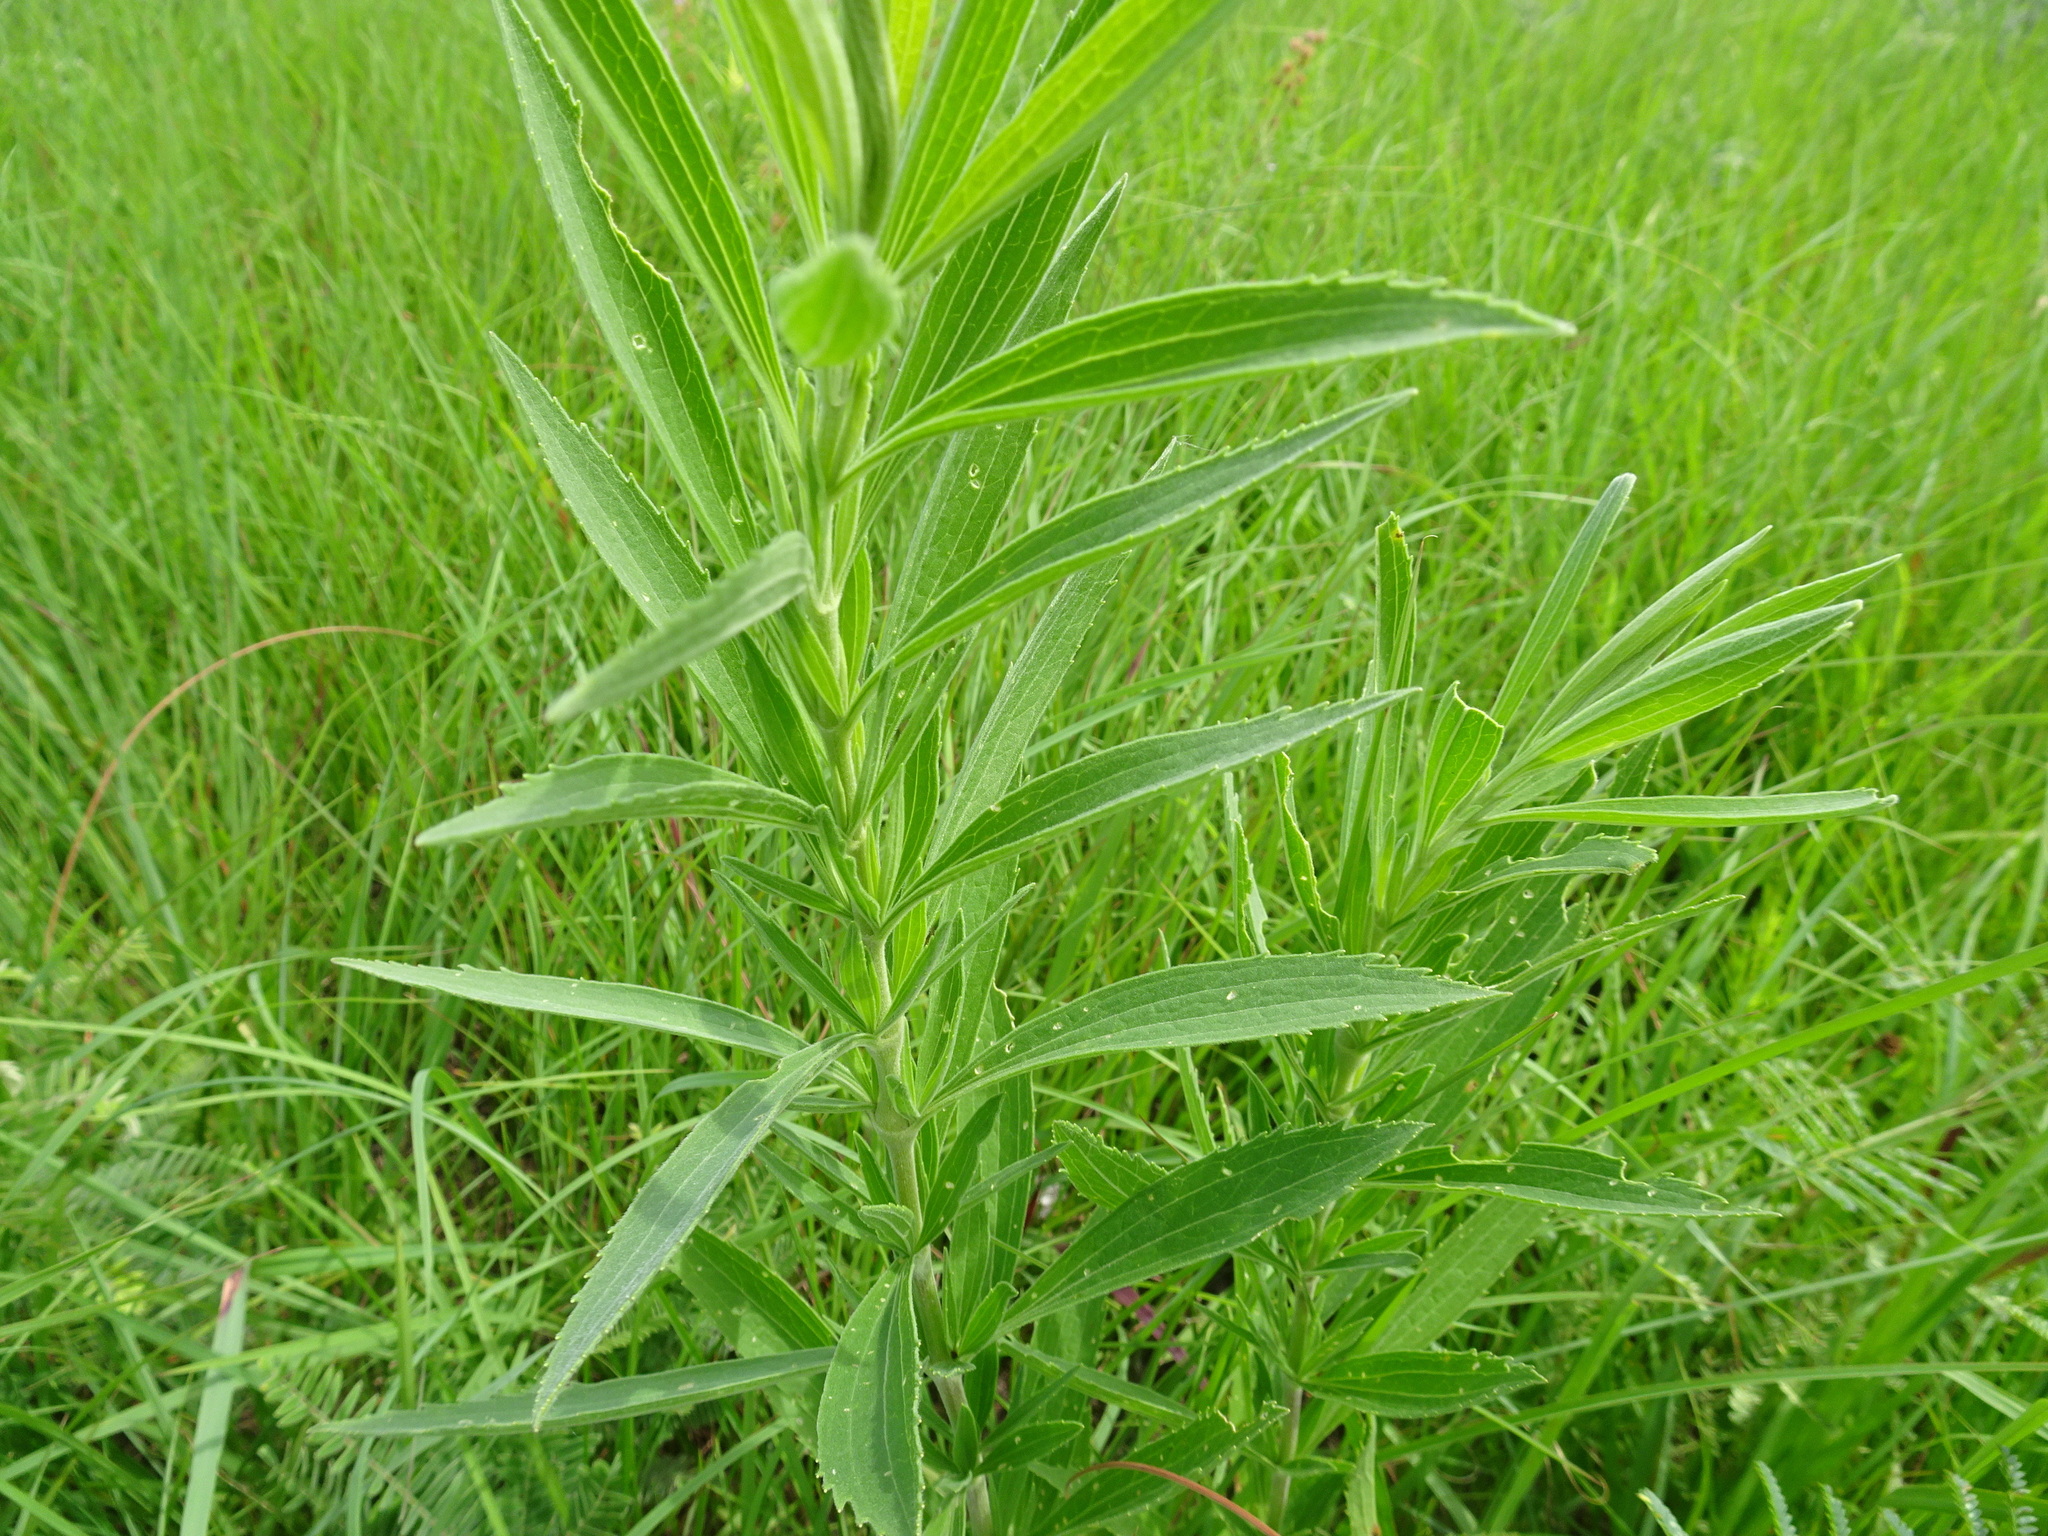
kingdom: Plantae
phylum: Tracheophyta
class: Magnoliopsida
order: Asterales
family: Asteraceae
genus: Eupatorium
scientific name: Eupatorium altissimum
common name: Tall thoroughwort
